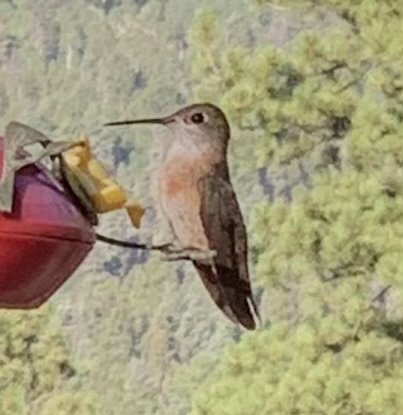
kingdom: Animalia
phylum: Chordata
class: Aves
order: Apodiformes
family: Trochilidae
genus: Selasphorus
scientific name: Selasphorus calliope
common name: Calliope hummingbird
